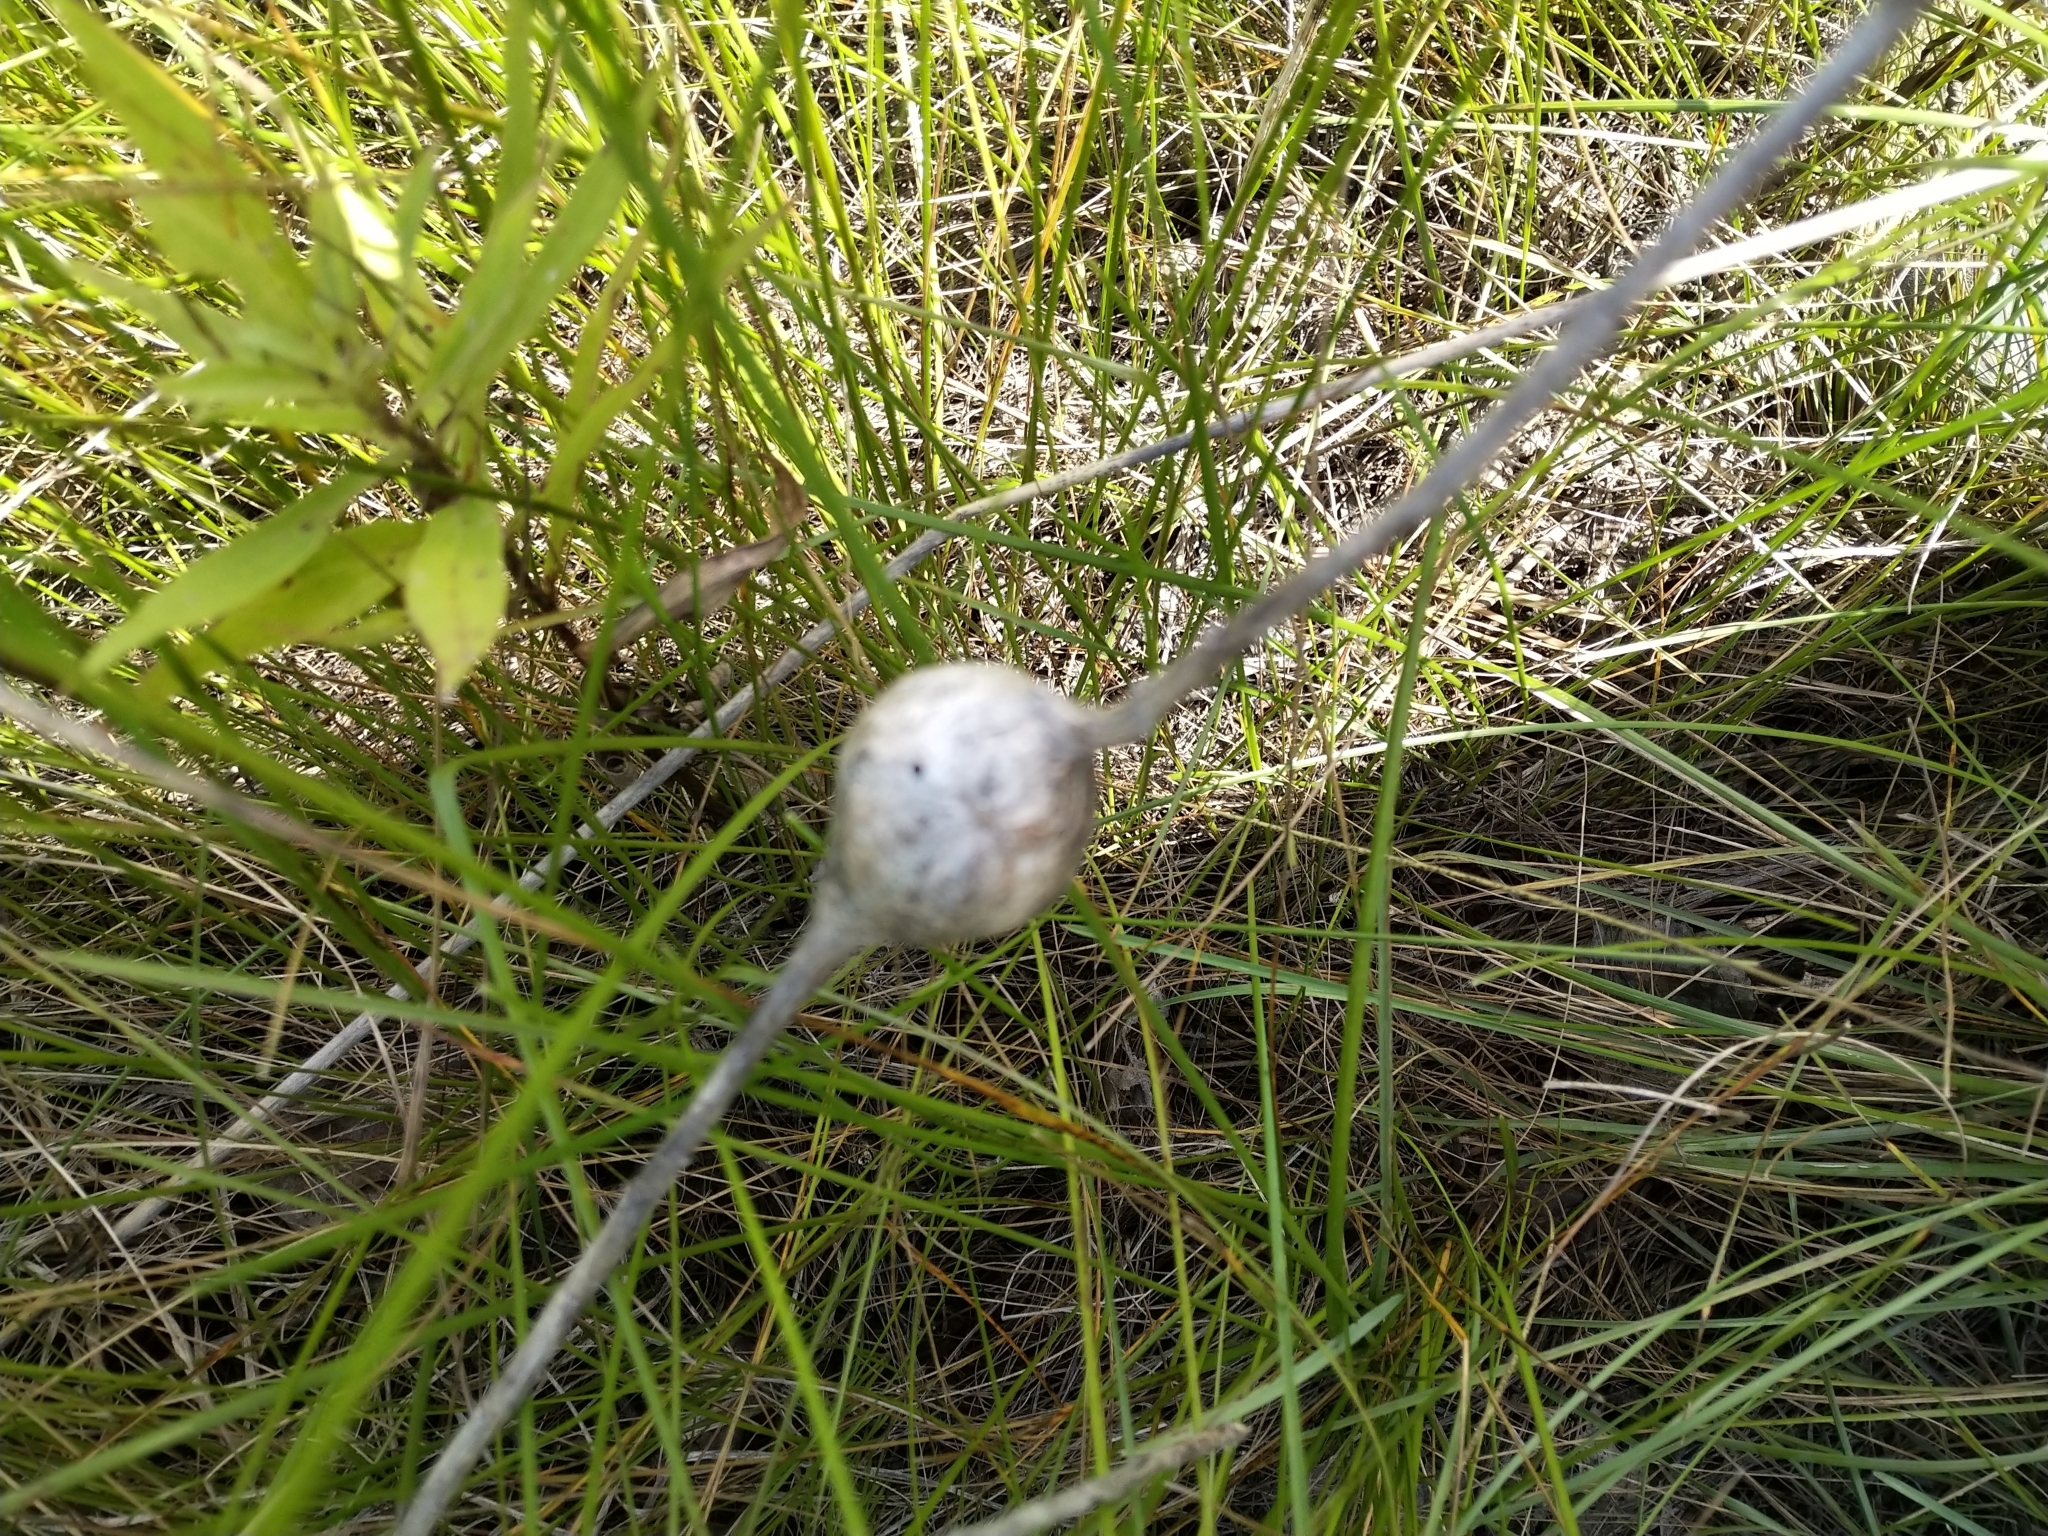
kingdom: Animalia
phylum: Arthropoda
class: Insecta
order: Diptera
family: Tephritidae
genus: Eurosta
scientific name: Eurosta solidaginis
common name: Goldenrod gall fly
